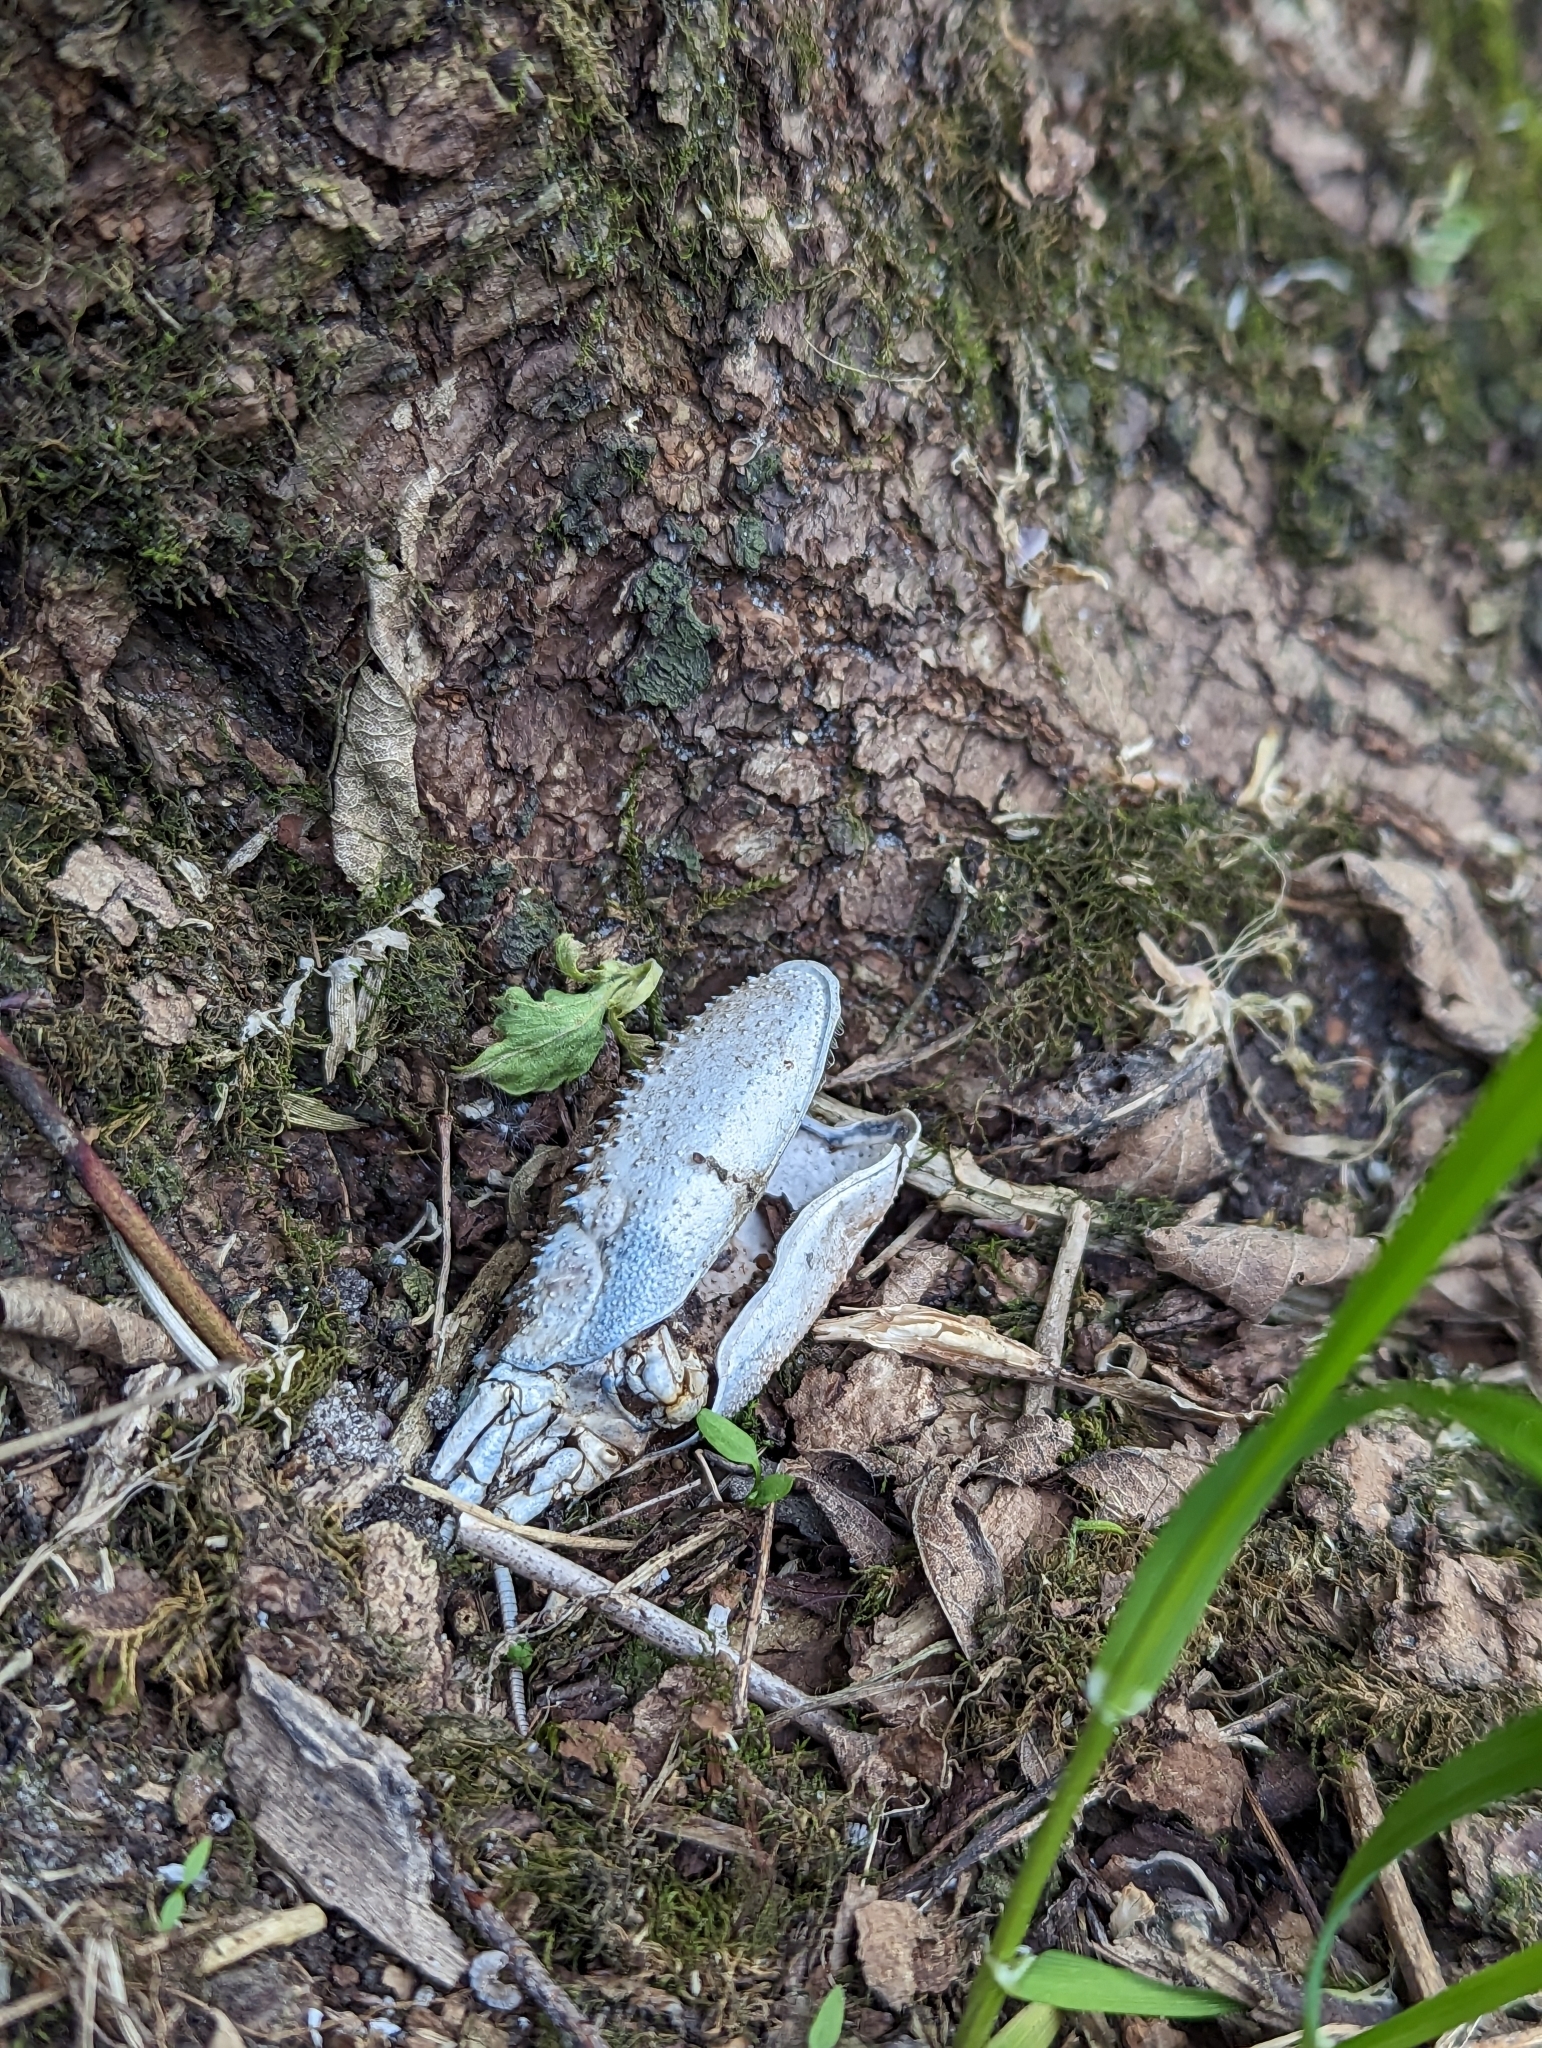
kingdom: Animalia
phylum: Arthropoda
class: Malacostraca
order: Decapoda
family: Astacidae
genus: Pontastacus
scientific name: Pontastacus leptodactylus
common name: Danube crayfish
